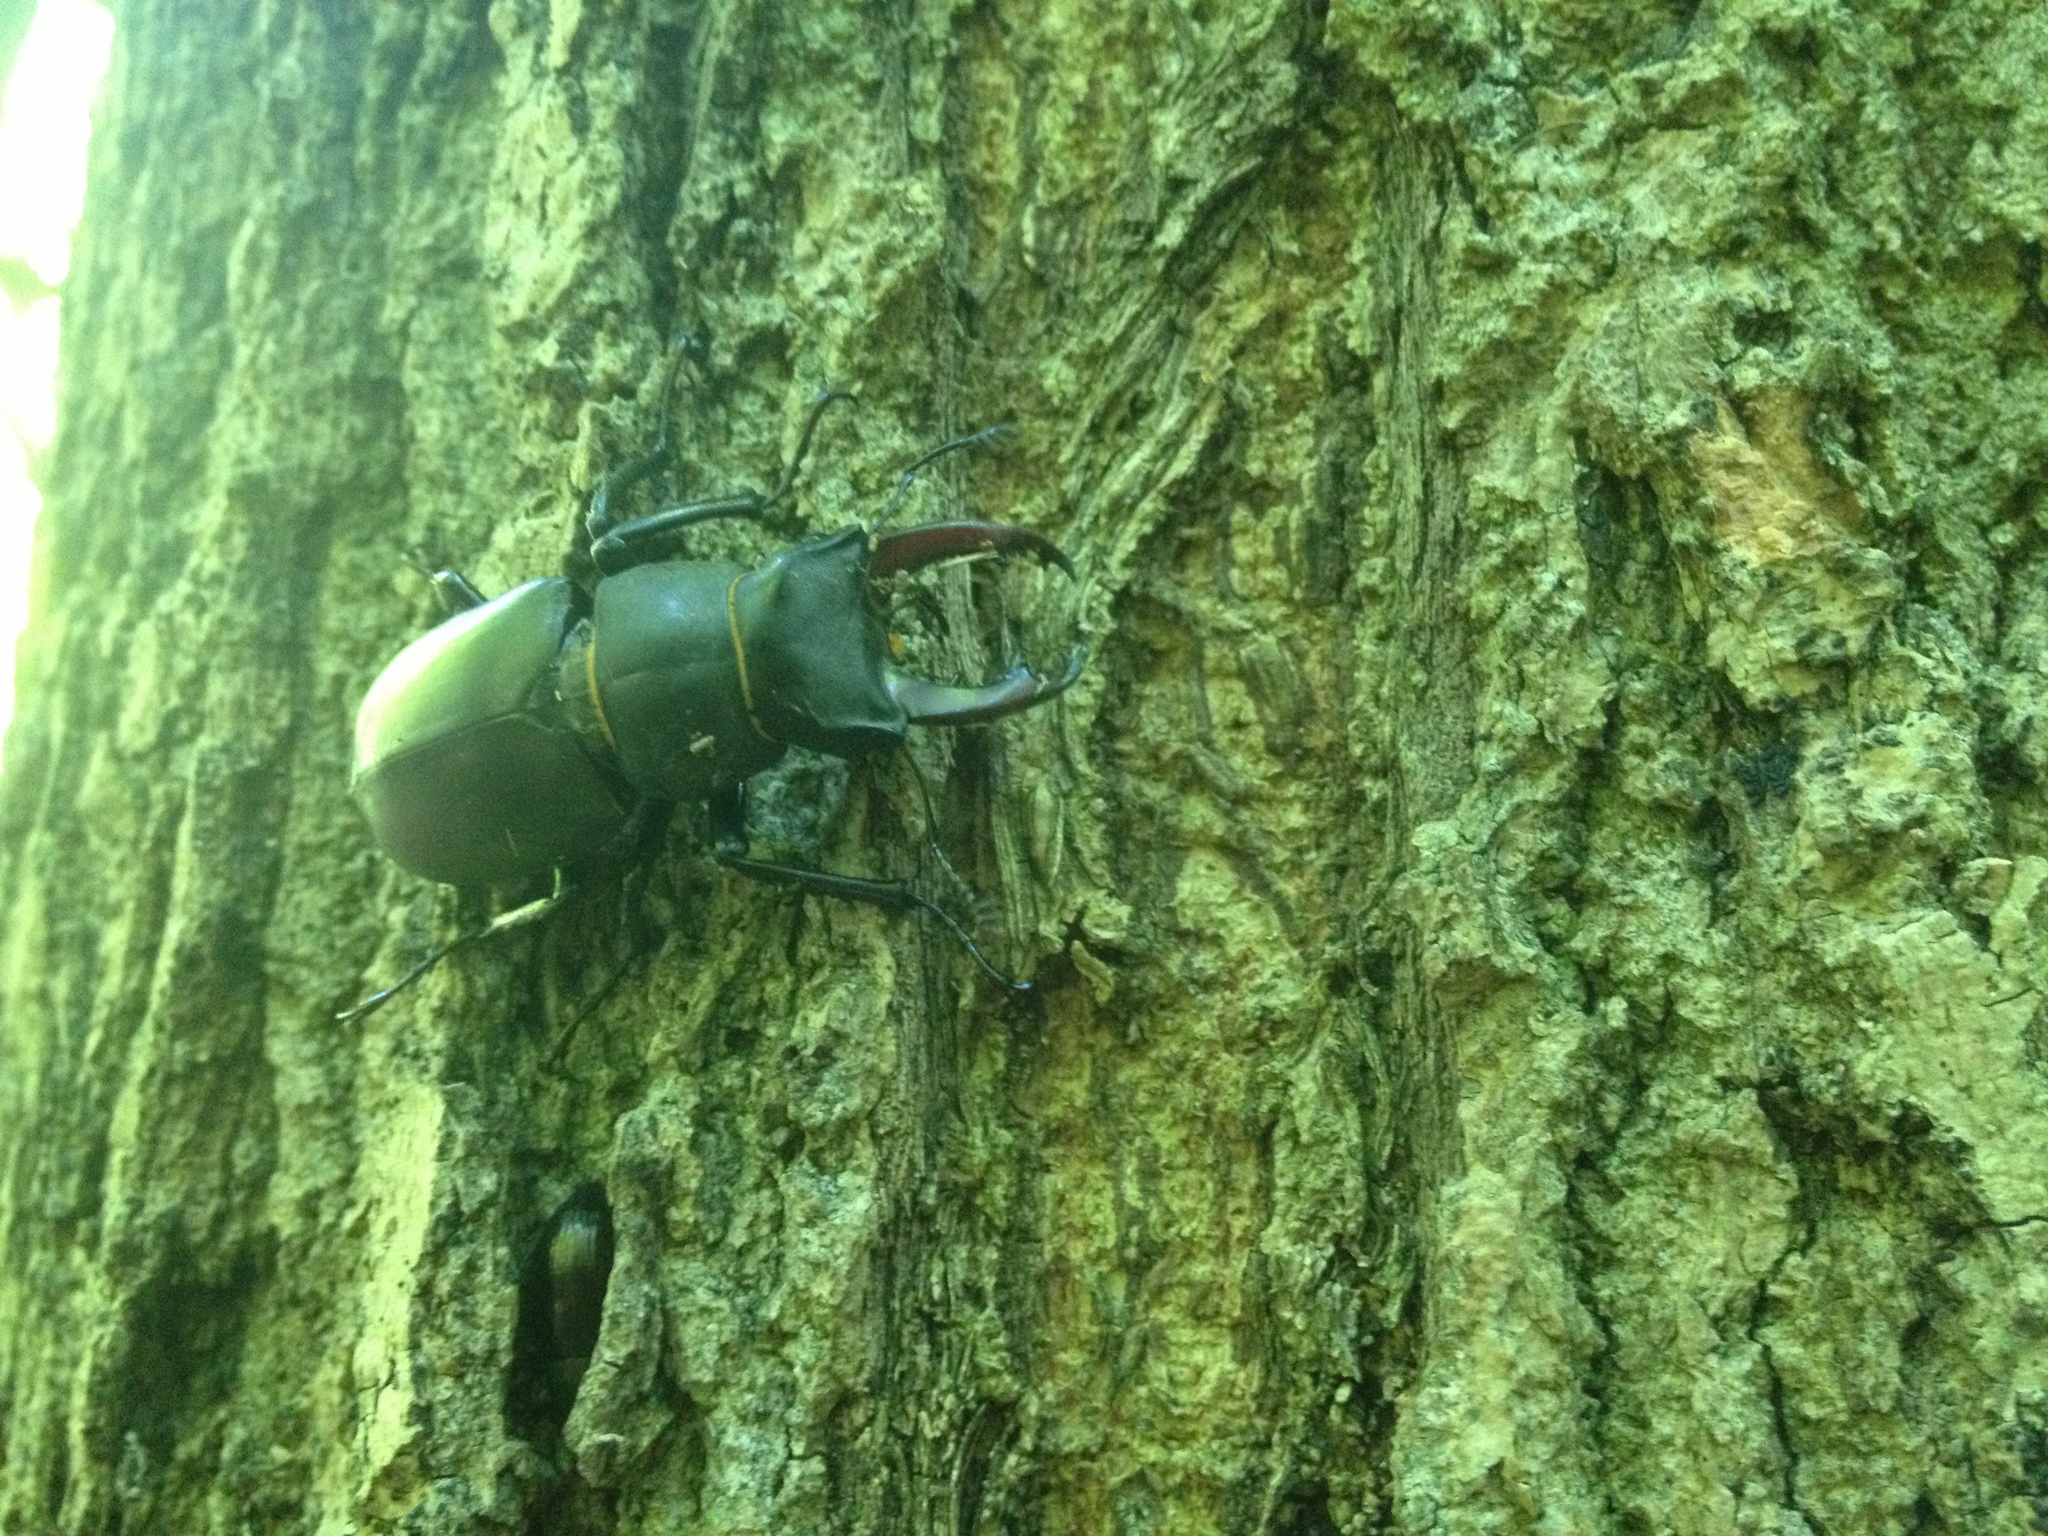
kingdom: Animalia
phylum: Arthropoda
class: Insecta
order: Coleoptera
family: Lucanidae
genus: Lucanus
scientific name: Lucanus cervus
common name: Stag beetle
